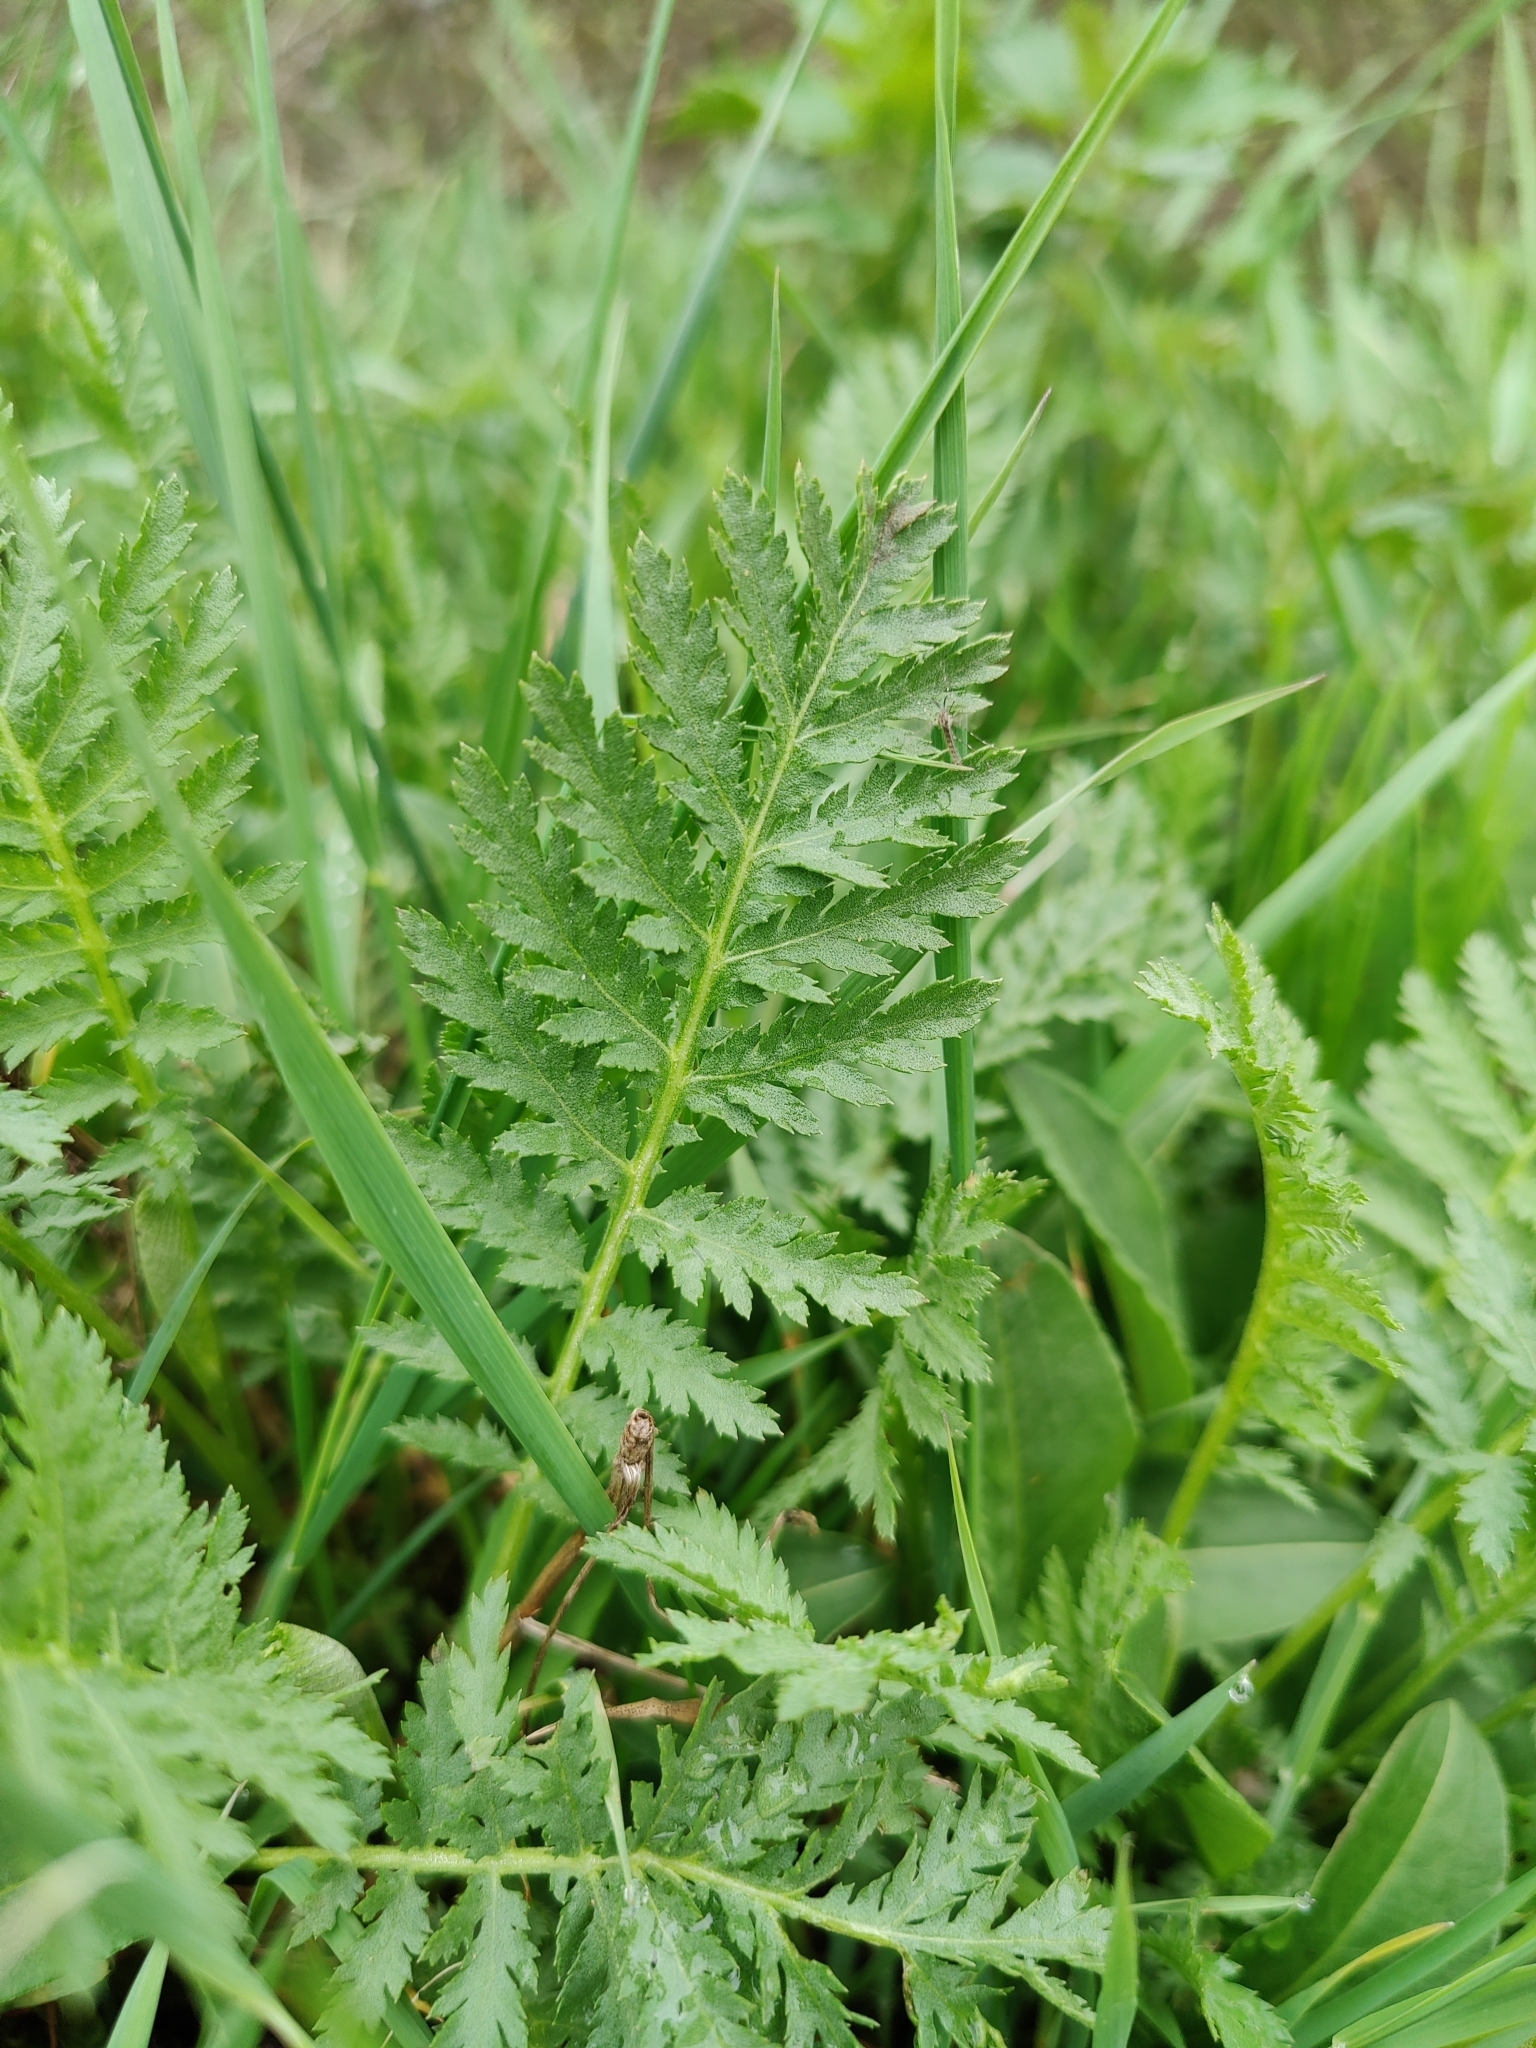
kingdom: Plantae
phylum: Tracheophyta
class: Magnoliopsida
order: Asterales
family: Asteraceae
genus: Tanacetum
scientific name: Tanacetum vulgare
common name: Common tansy
